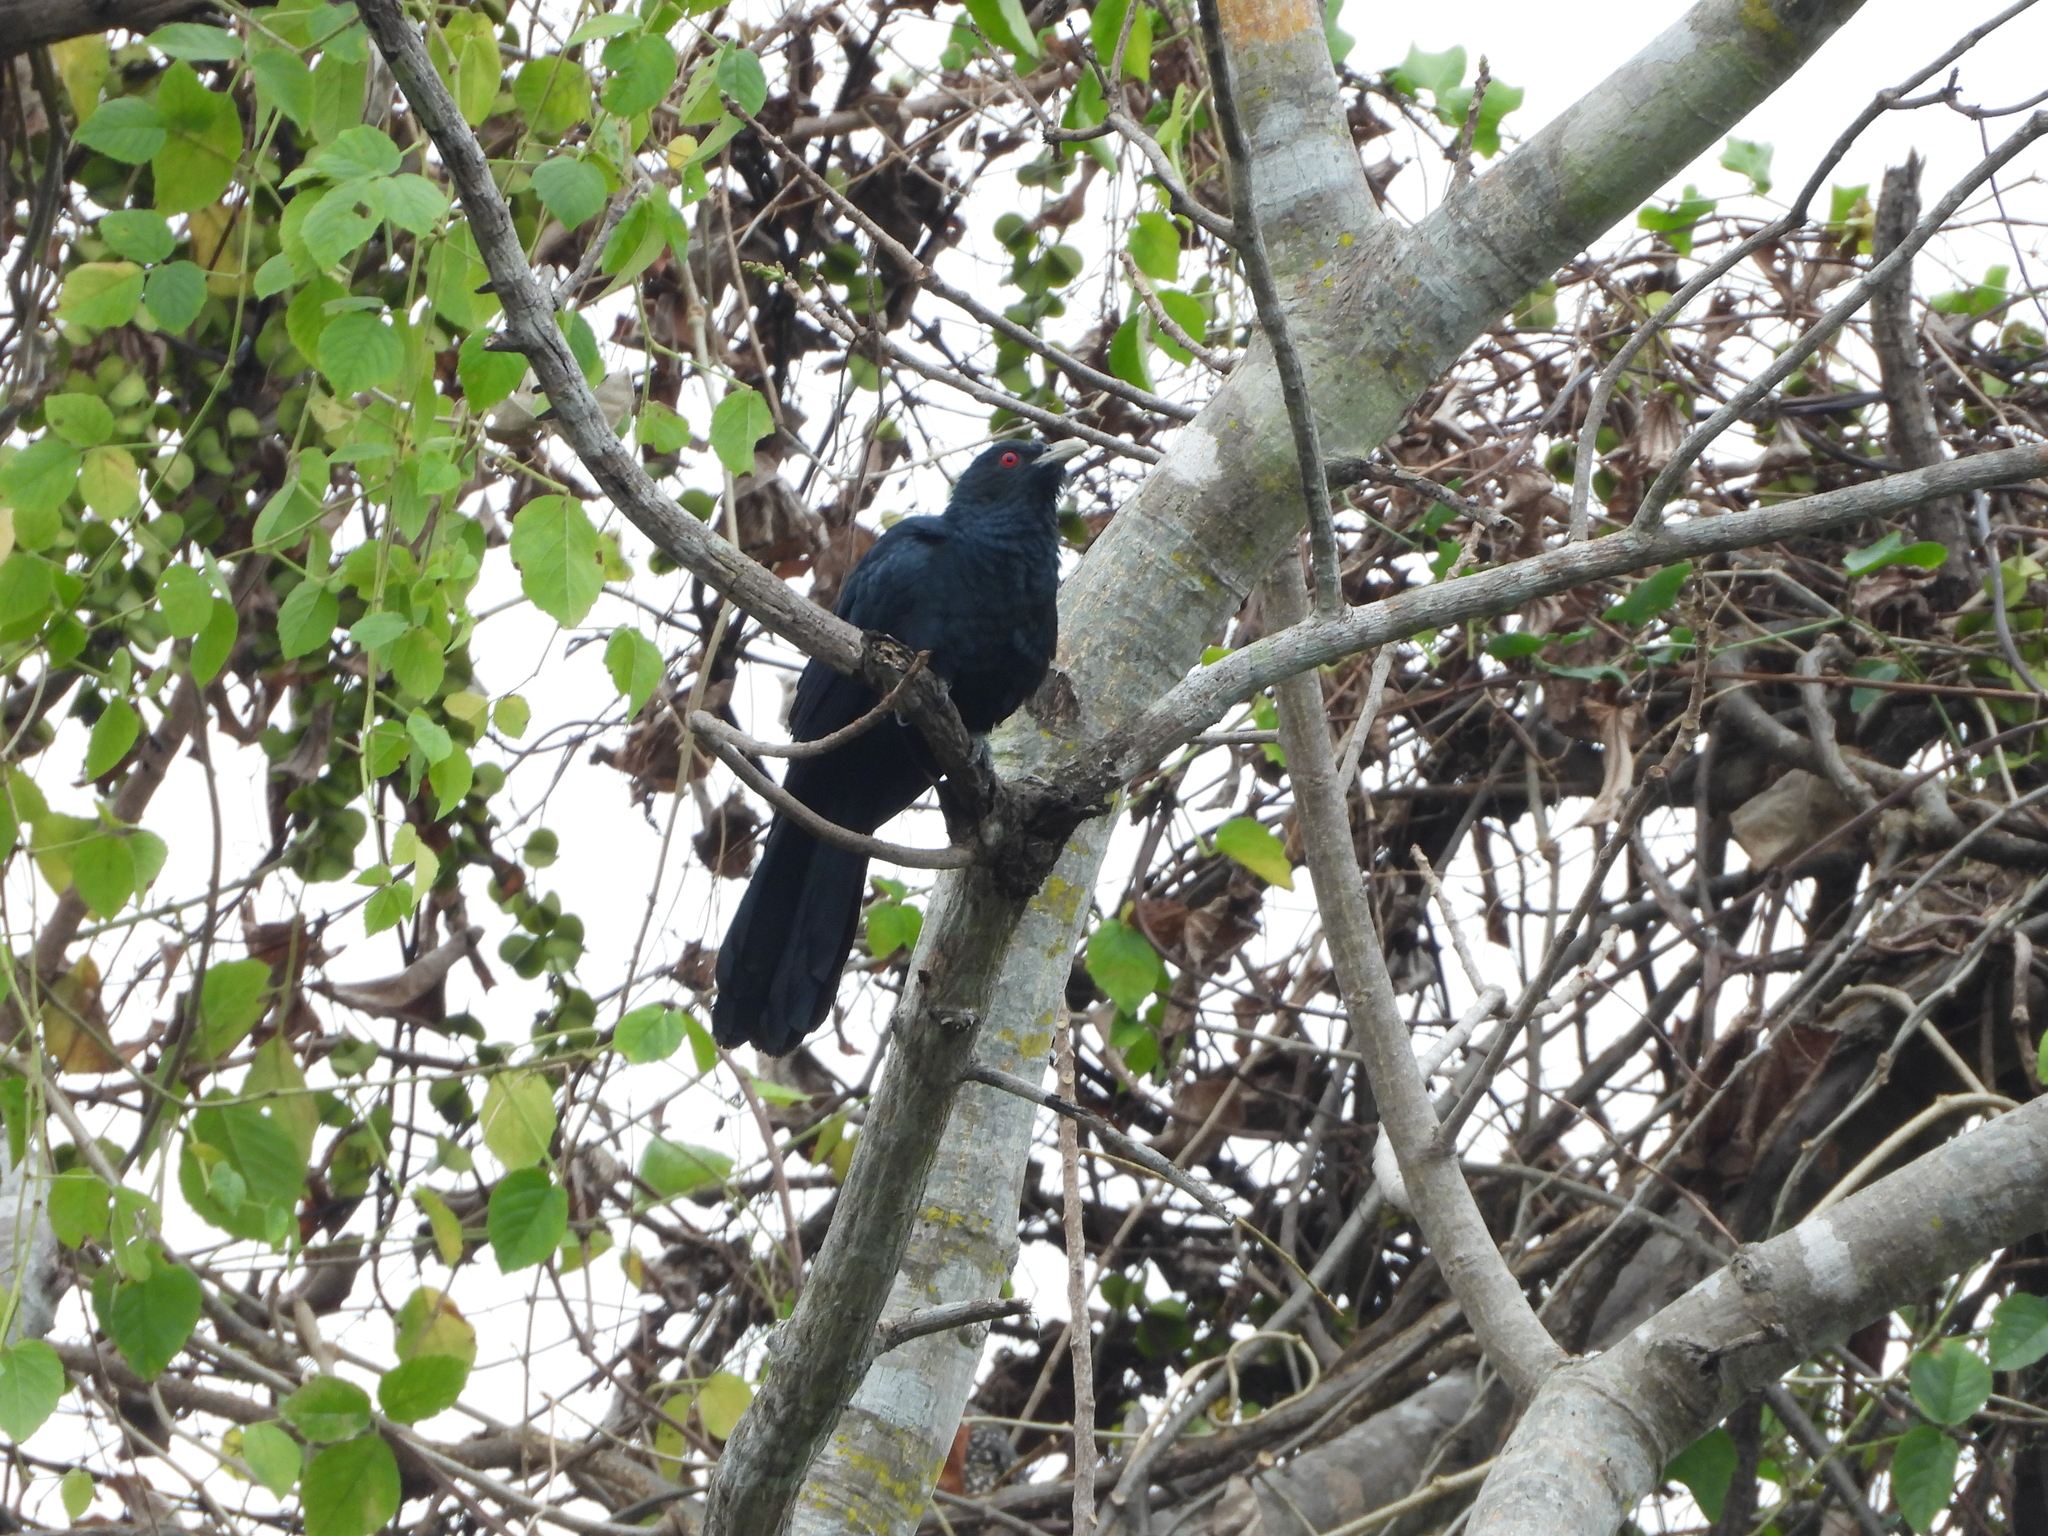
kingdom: Animalia
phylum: Chordata
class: Aves
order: Cuculiformes
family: Cuculidae
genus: Eudynamys
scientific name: Eudynamys scolopaceus
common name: Asian koel
